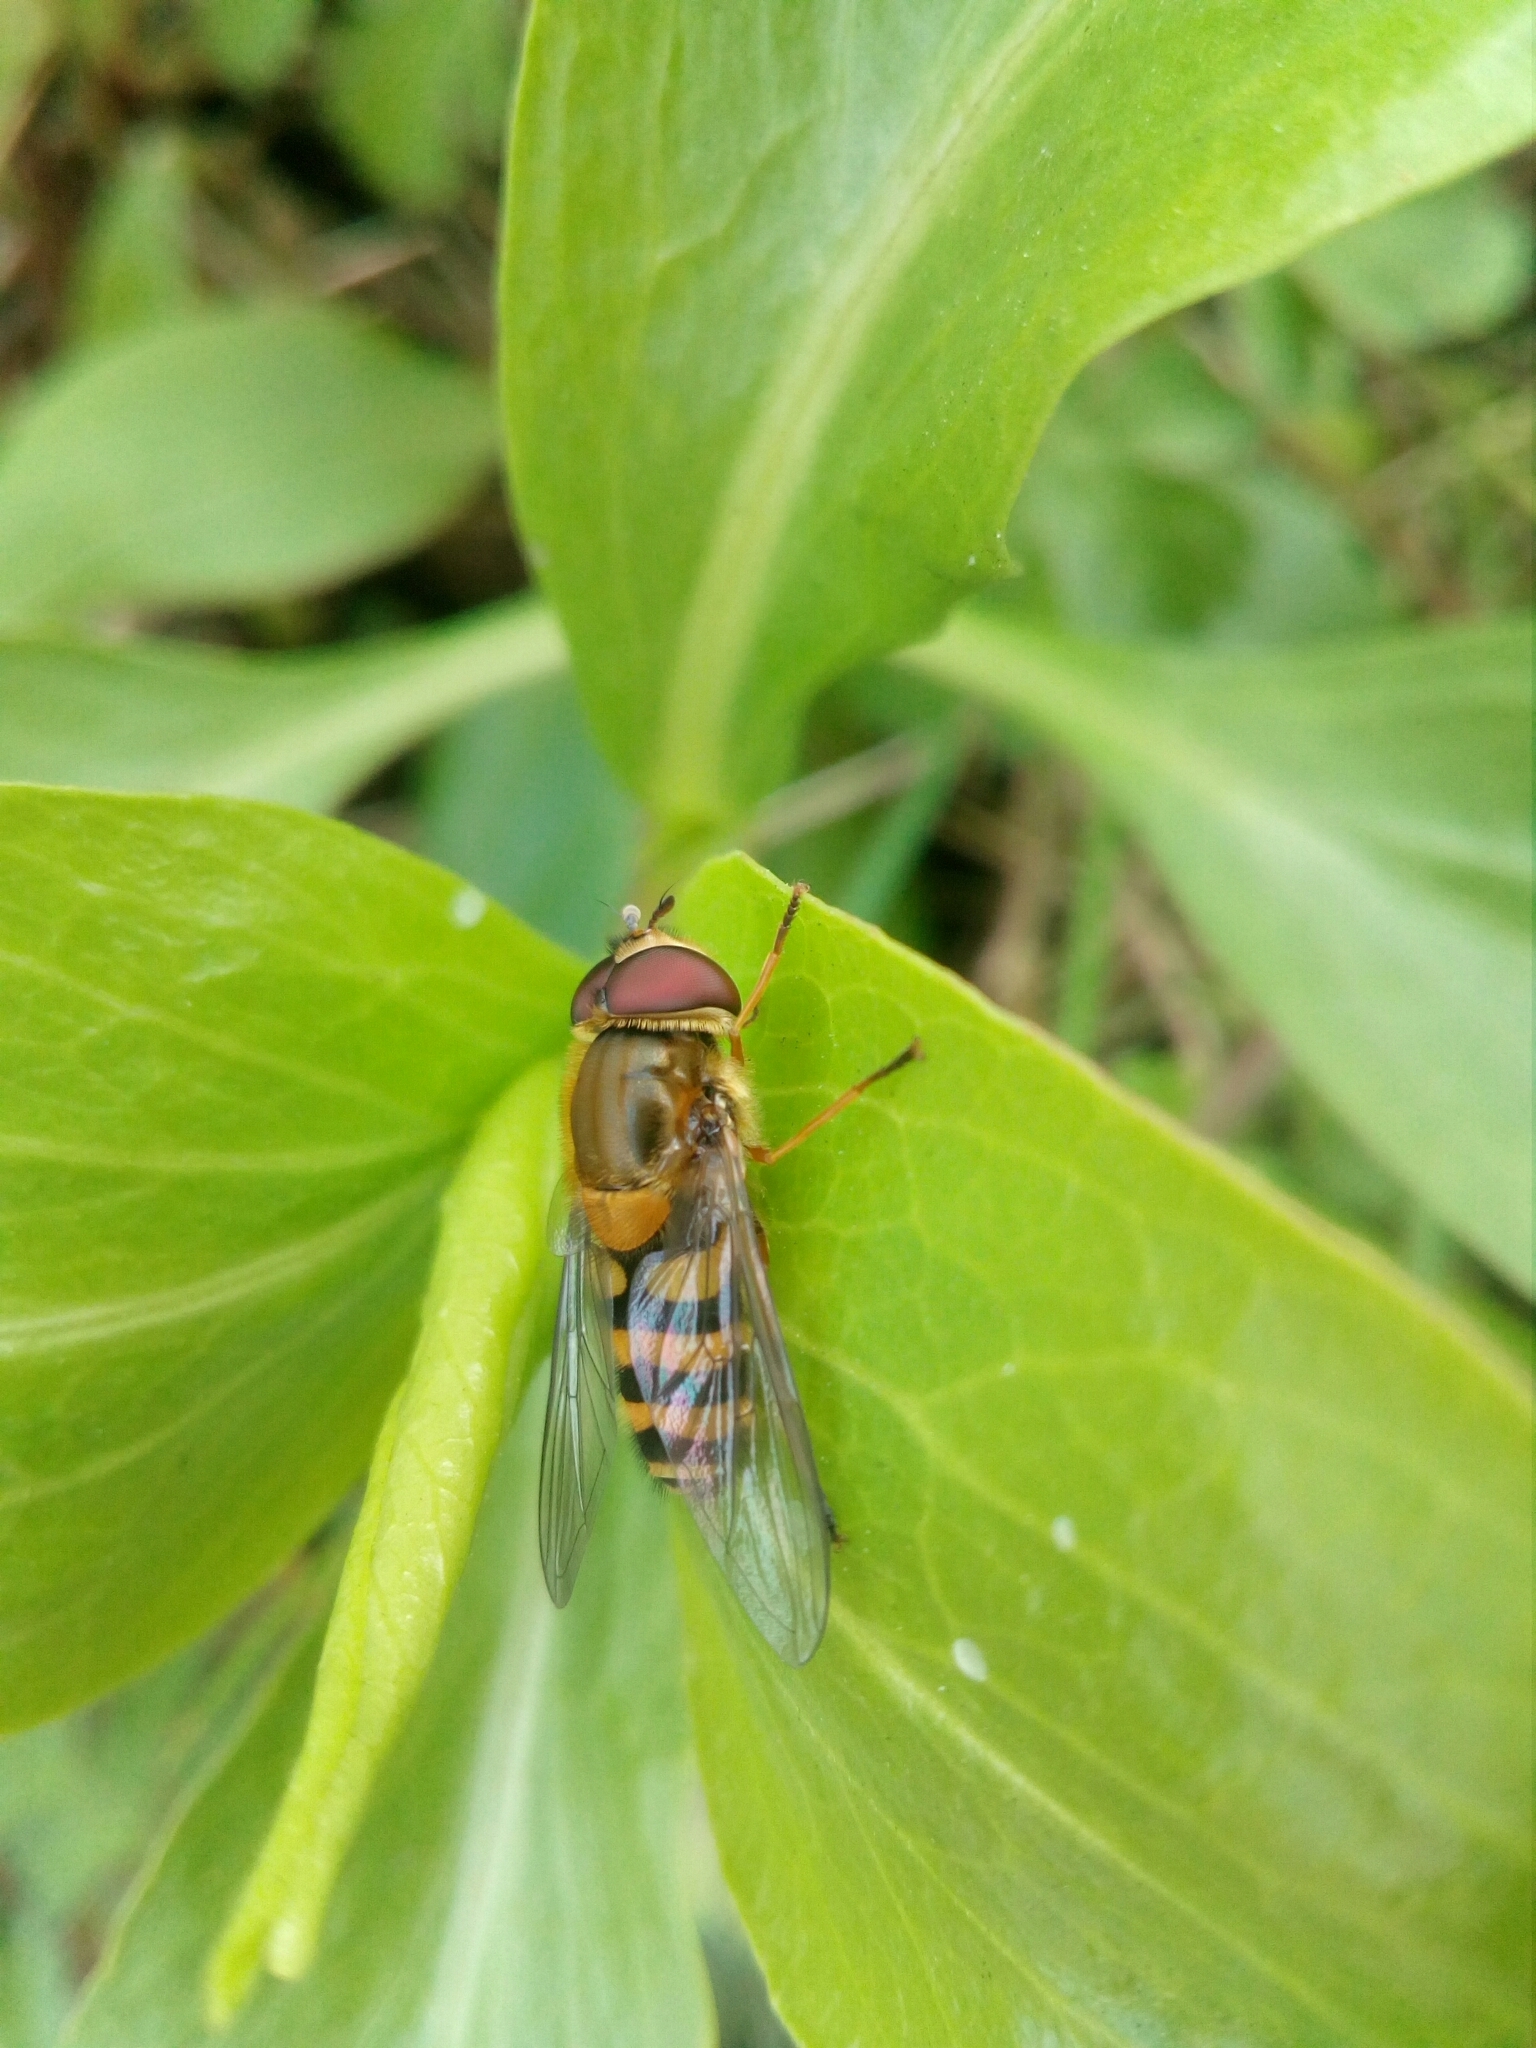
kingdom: Animalia
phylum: Arthropoda
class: Insecta
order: Diptera
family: Syrphidae
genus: Syrphus
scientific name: Syrphus
